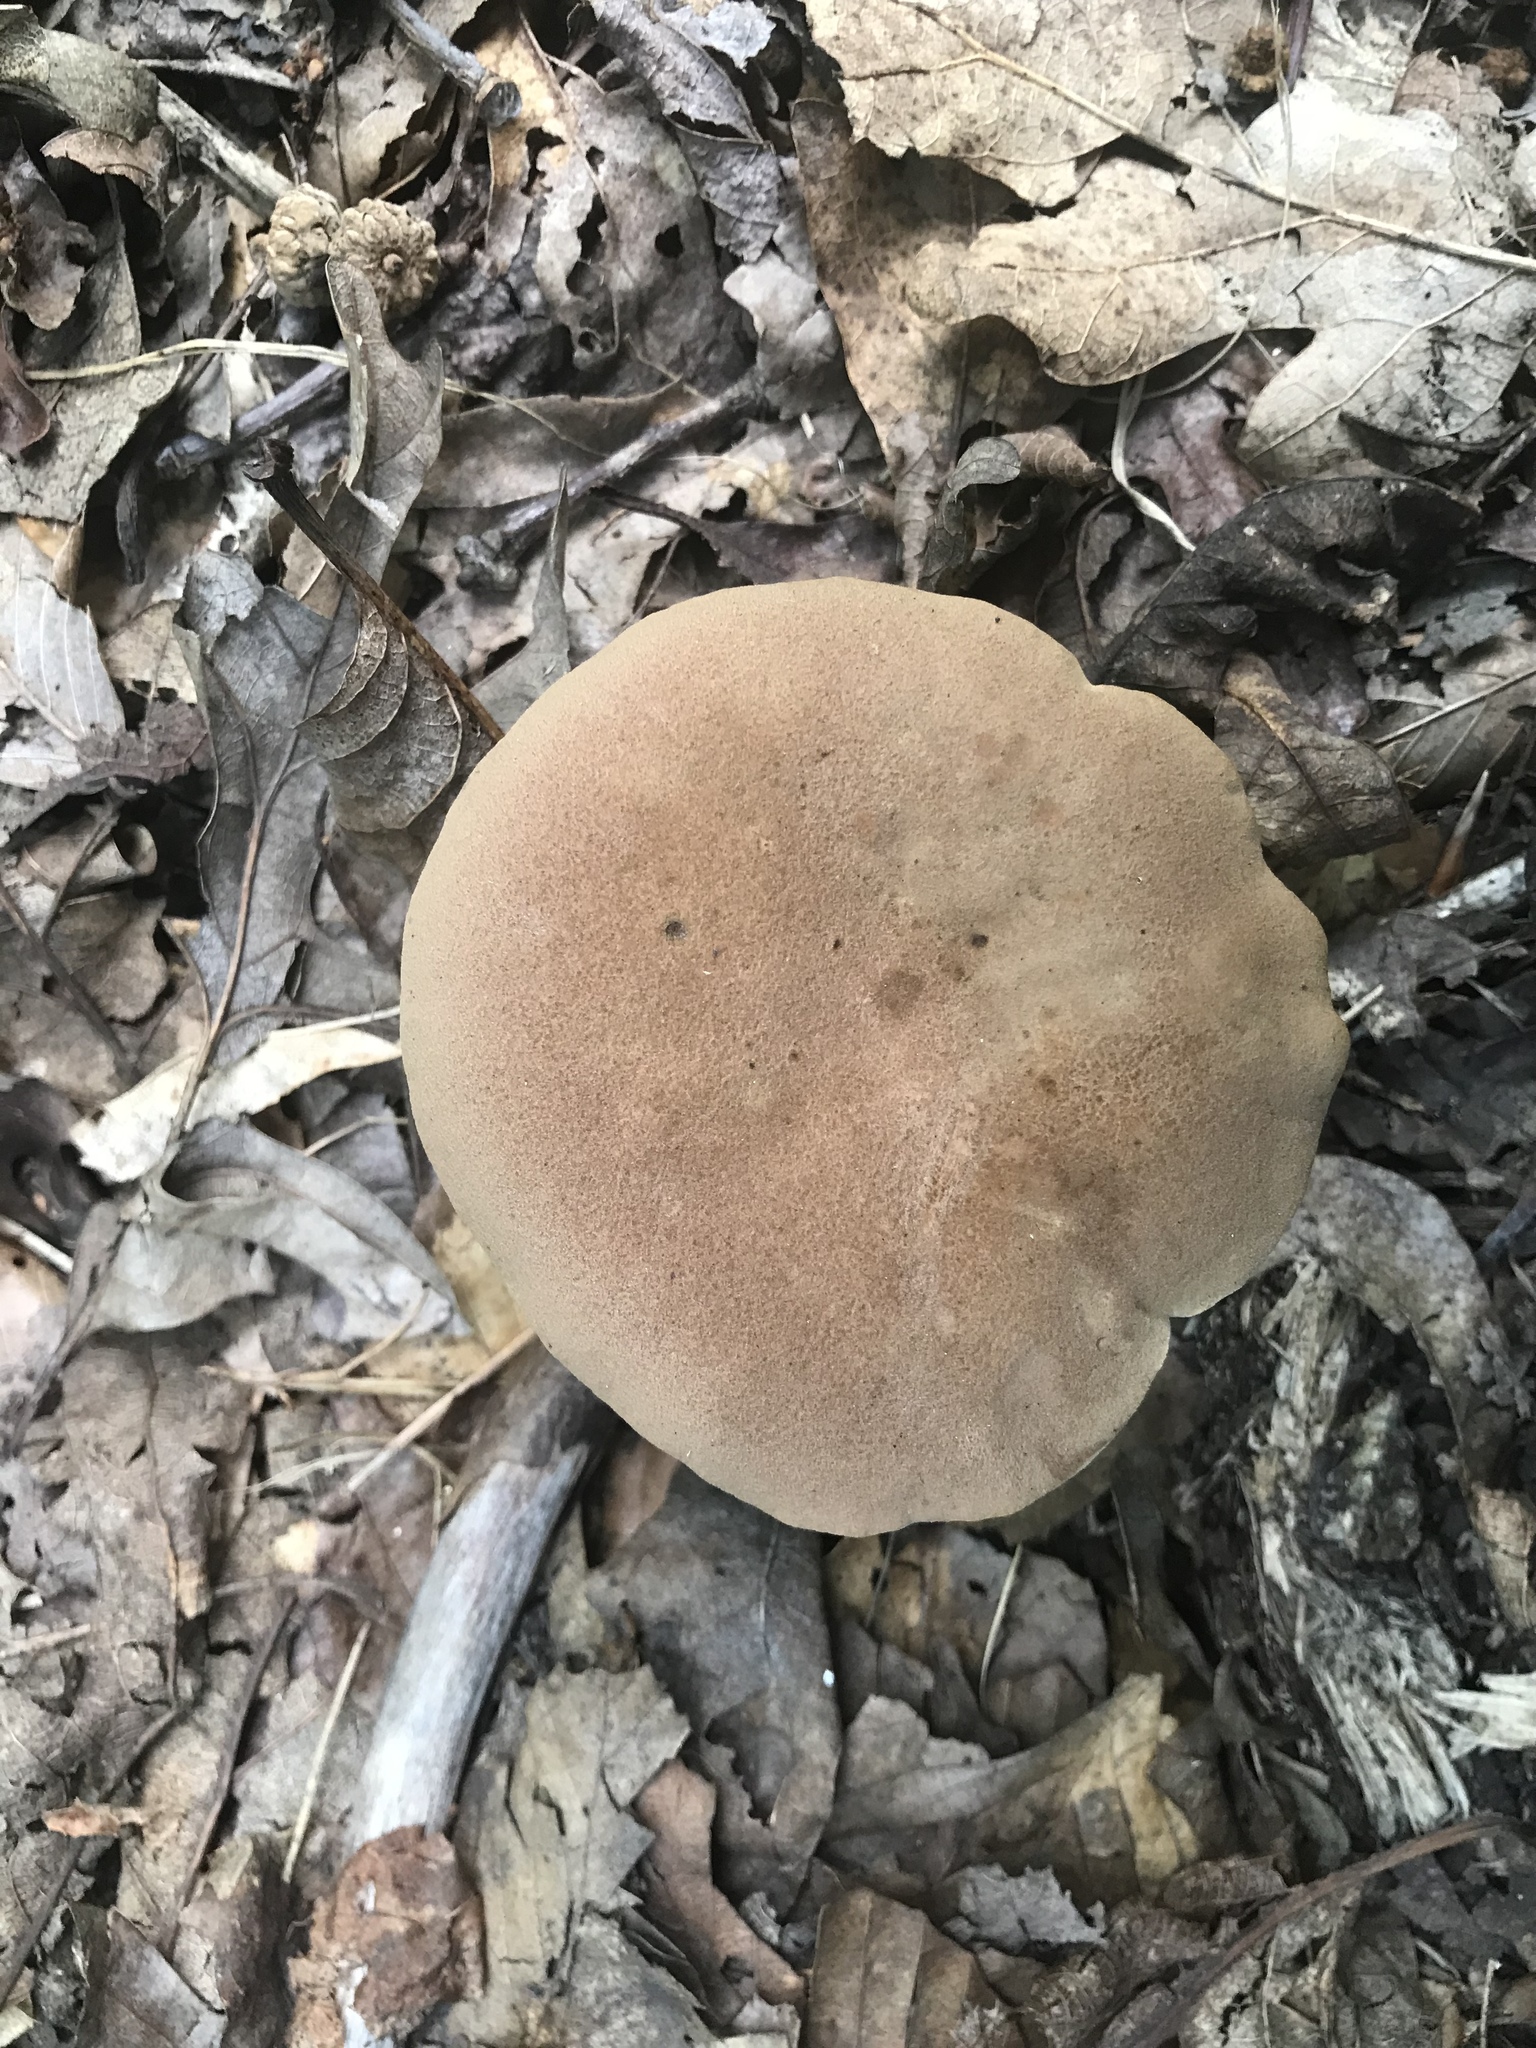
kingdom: Fungi
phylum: Basidiomycota
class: Agaricomycetes
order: Boletales
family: Boletaceae
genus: Bothia
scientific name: Bothia castanella
